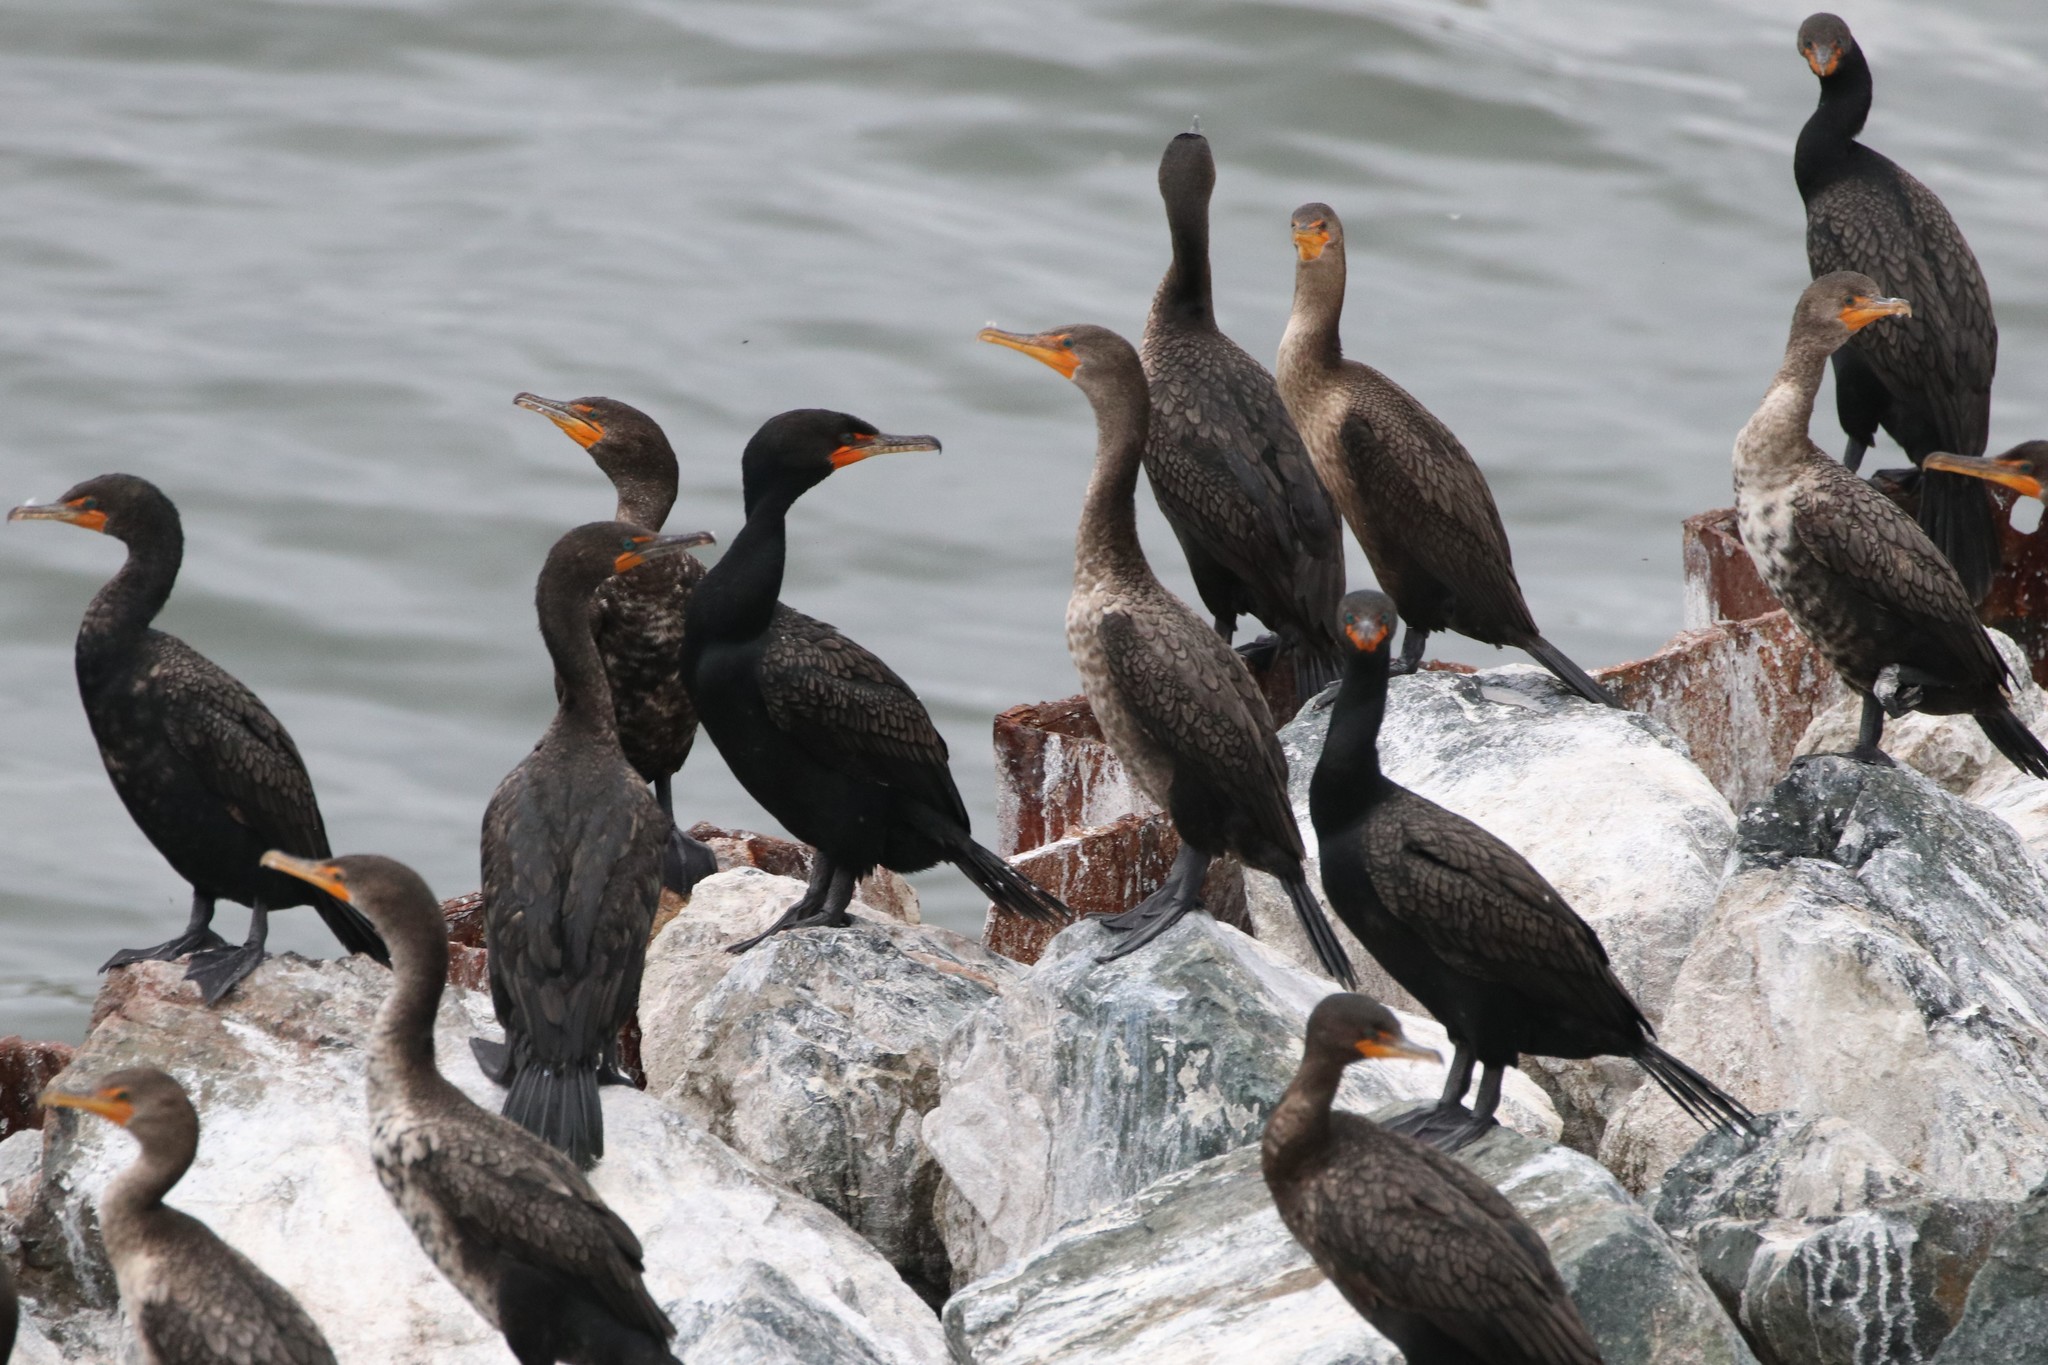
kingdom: Animalia
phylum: Chordata
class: Aves
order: Suliformes
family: Phalacrocoracidae
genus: Phalacrocorax
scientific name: Phalacrocorax auritus
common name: Double-crested cormorant
